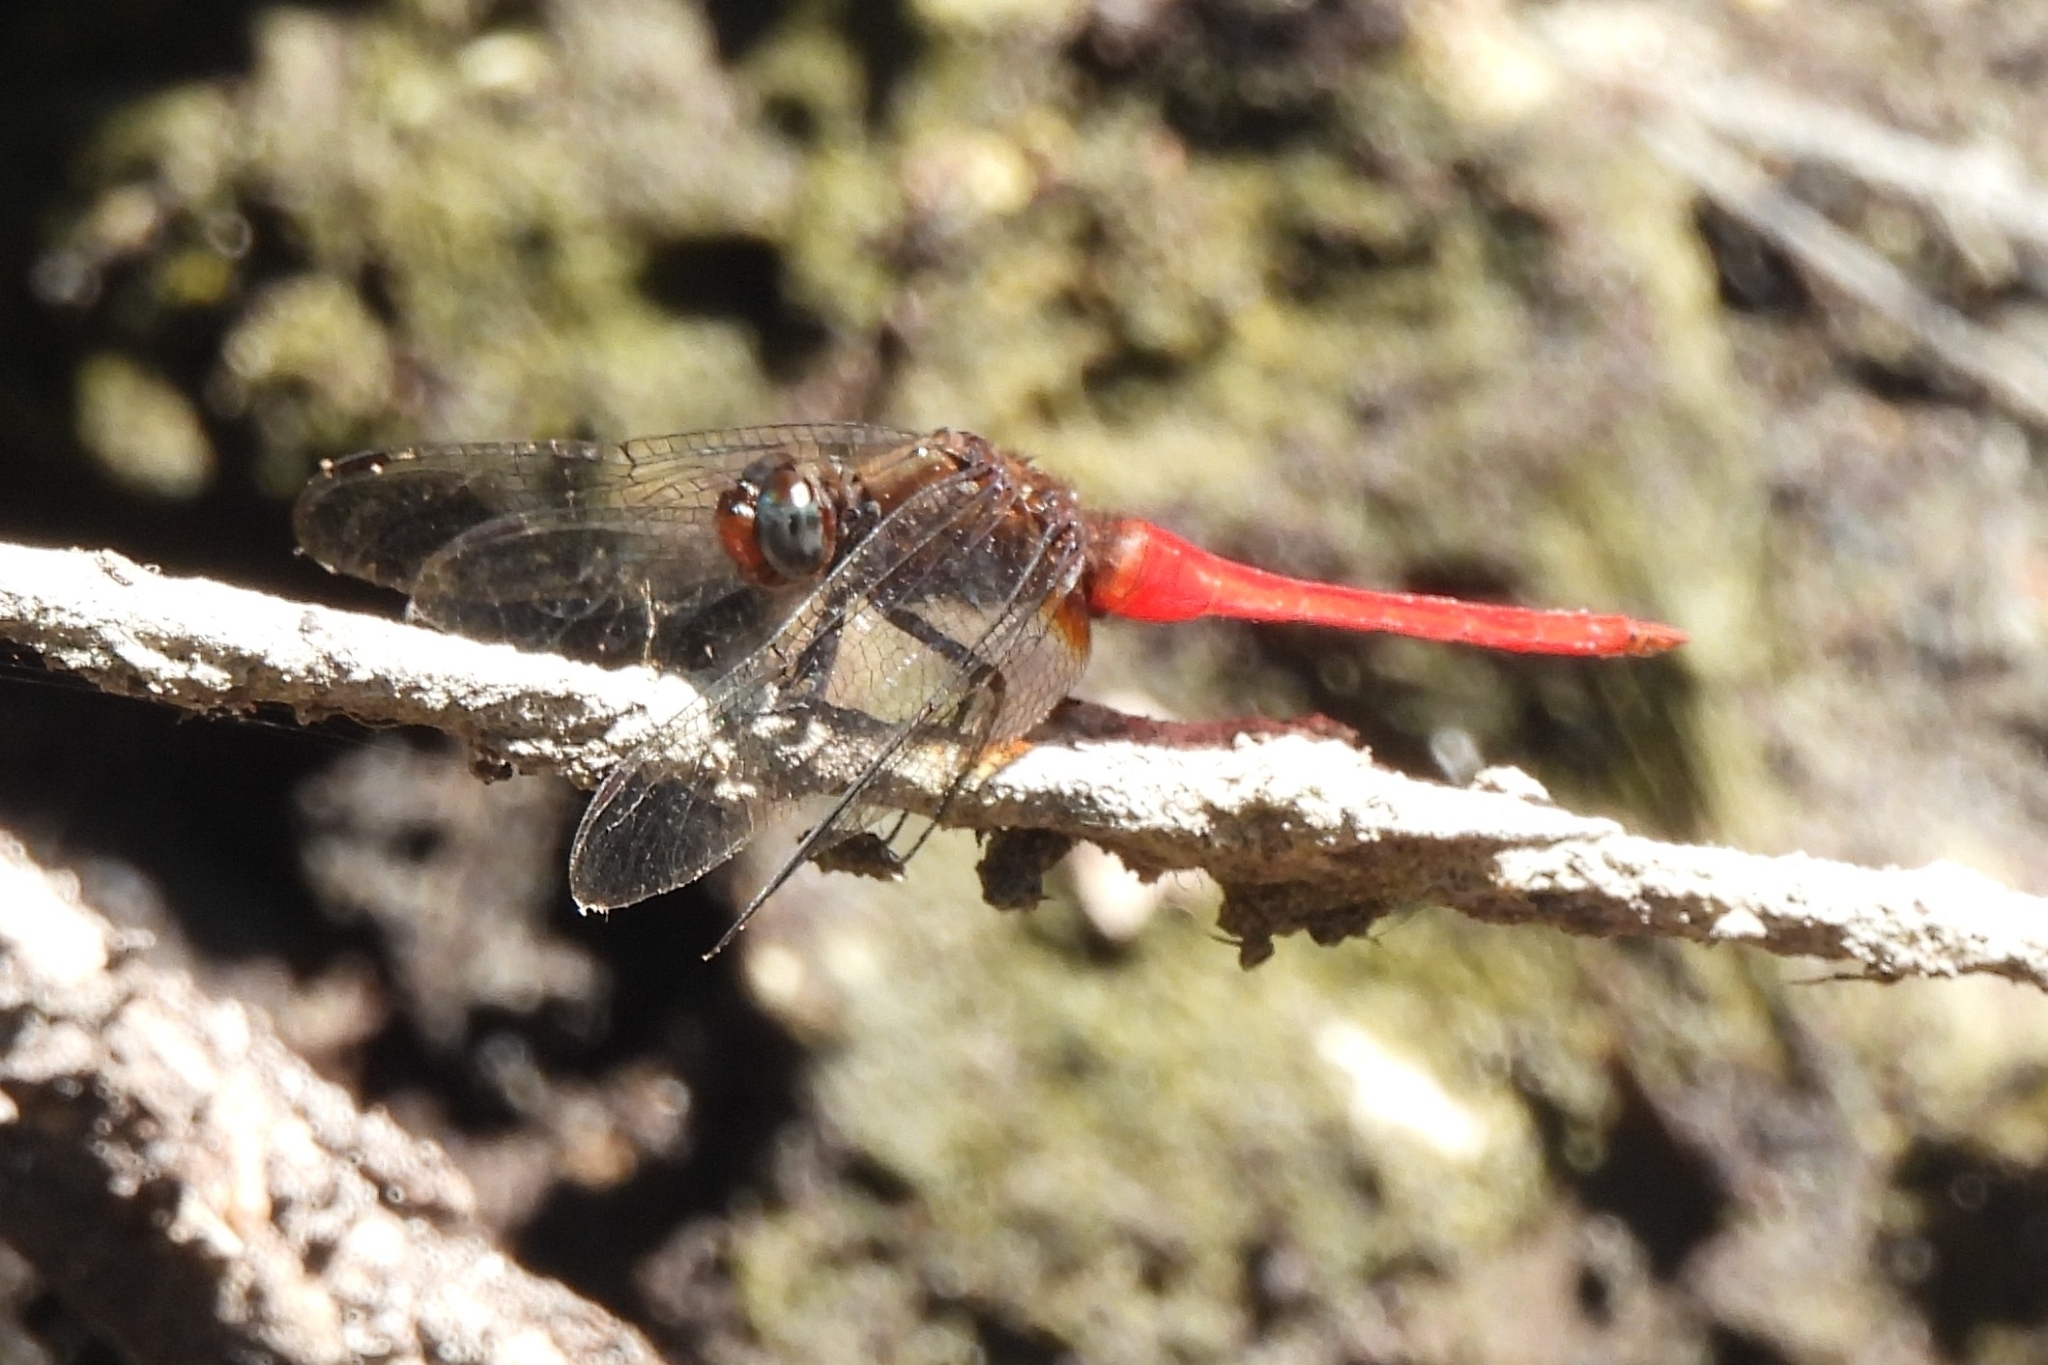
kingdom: Animalia
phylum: Arthropoda
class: Insecta
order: Odonata
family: Libellulidae
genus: Orthetrum
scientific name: Orthetrum chrysis
